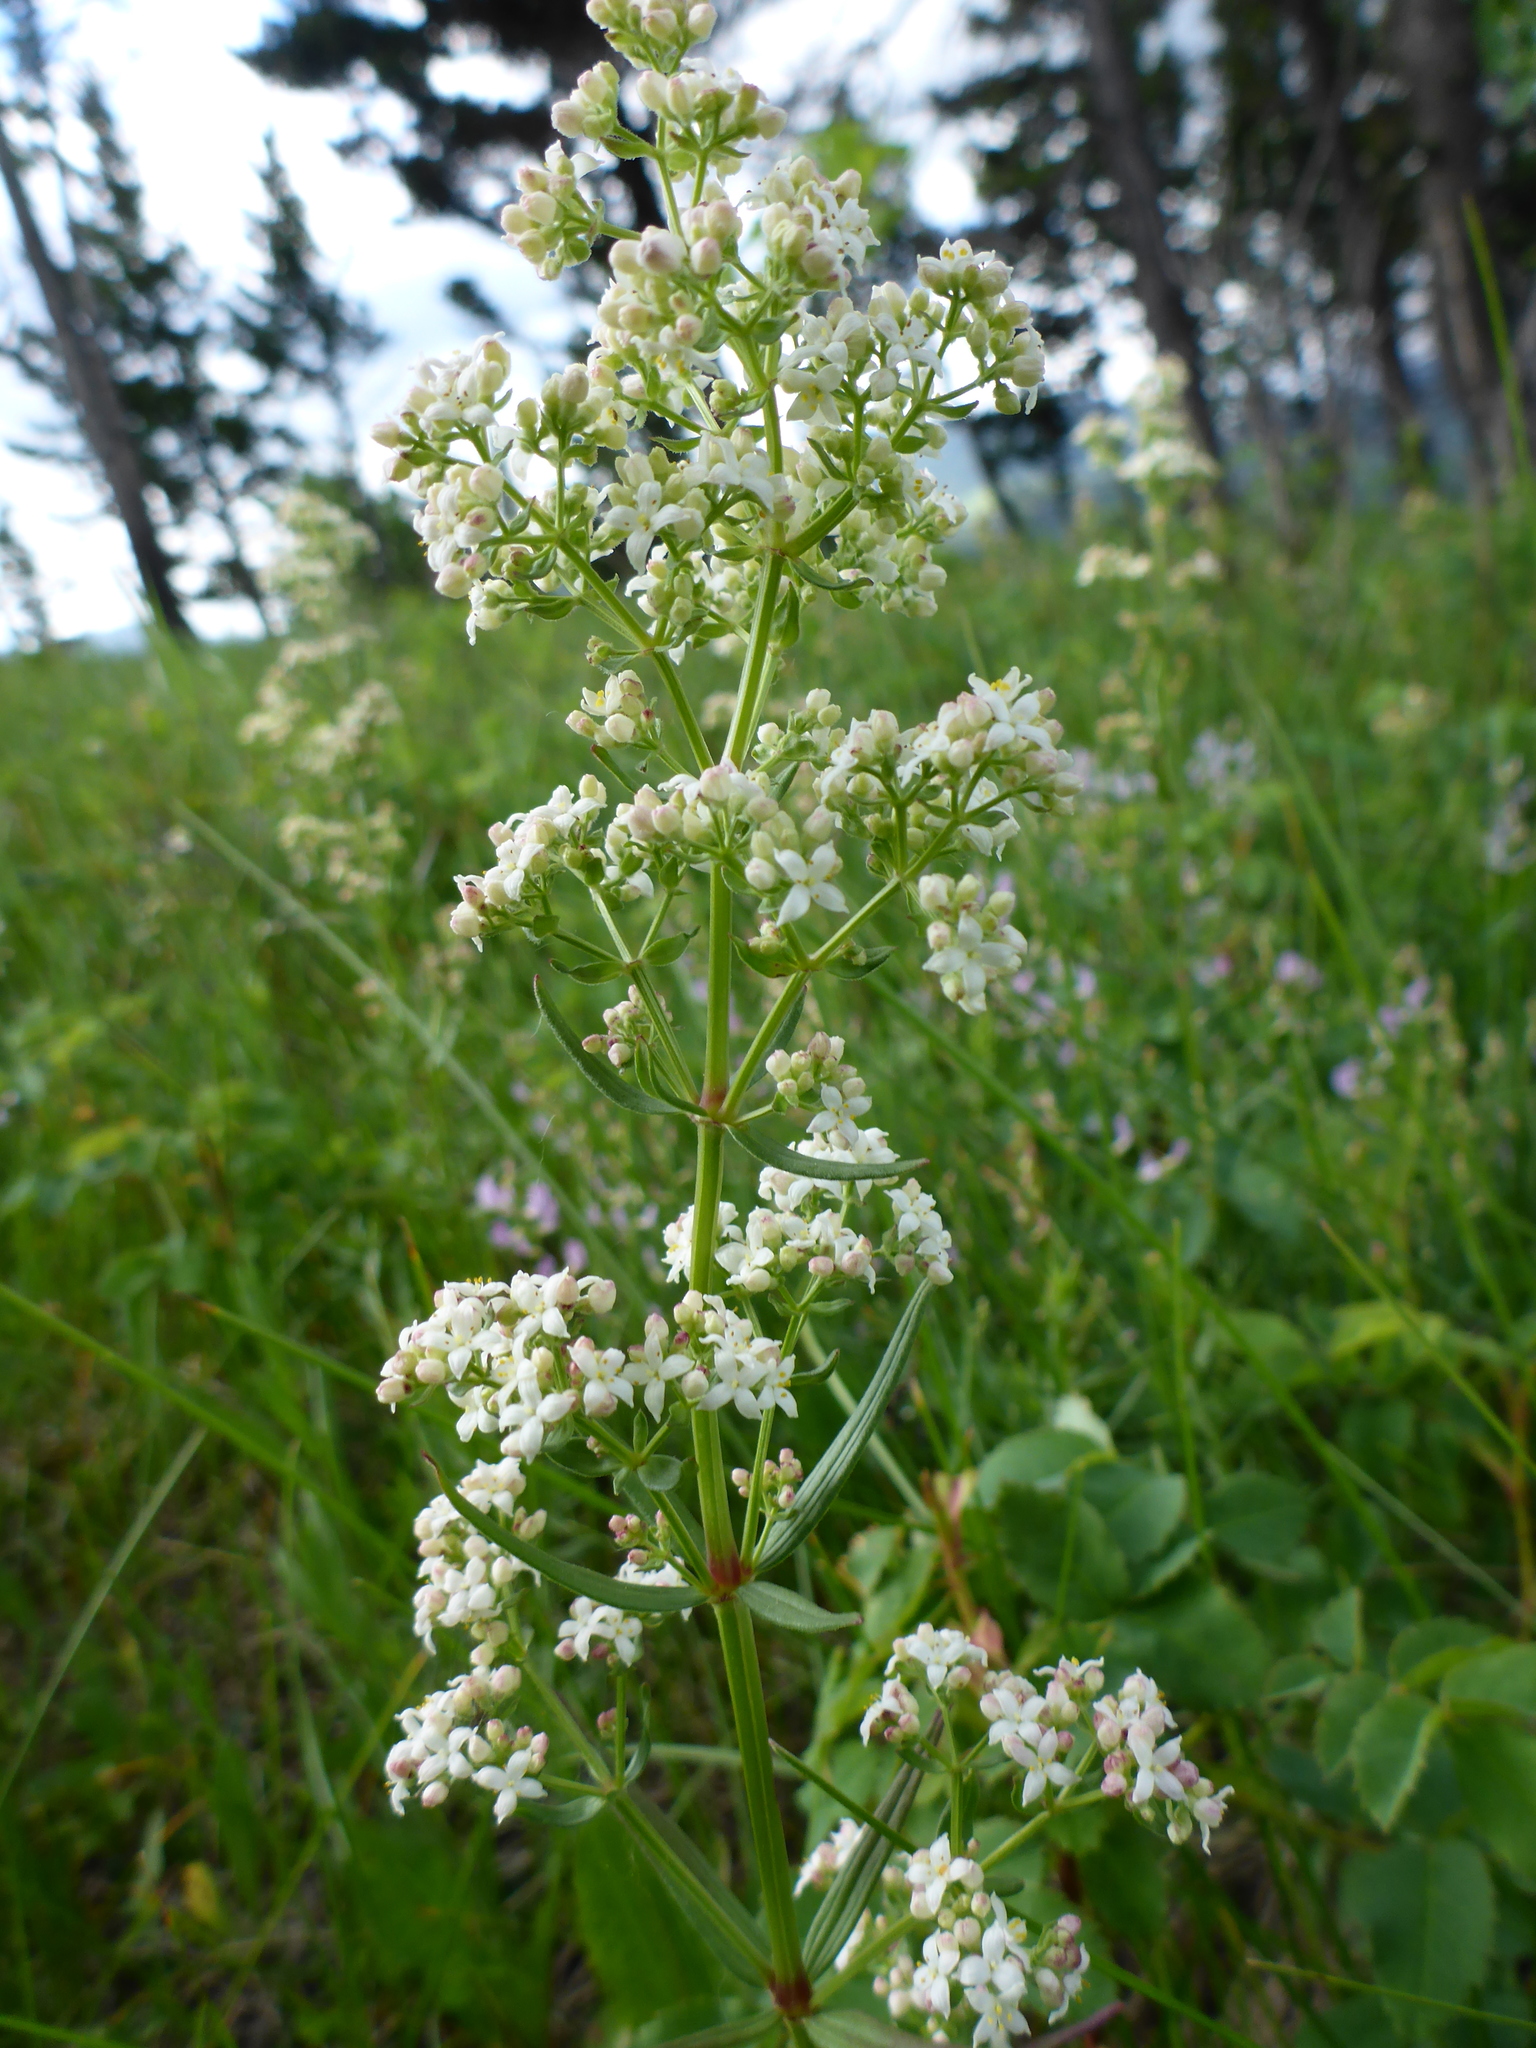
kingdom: Plantae
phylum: Tracheophyta
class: Magnoliopsida
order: Gentianales
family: Rubiaceae
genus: Galium
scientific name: Galium boreale
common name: Northern bedstraw
